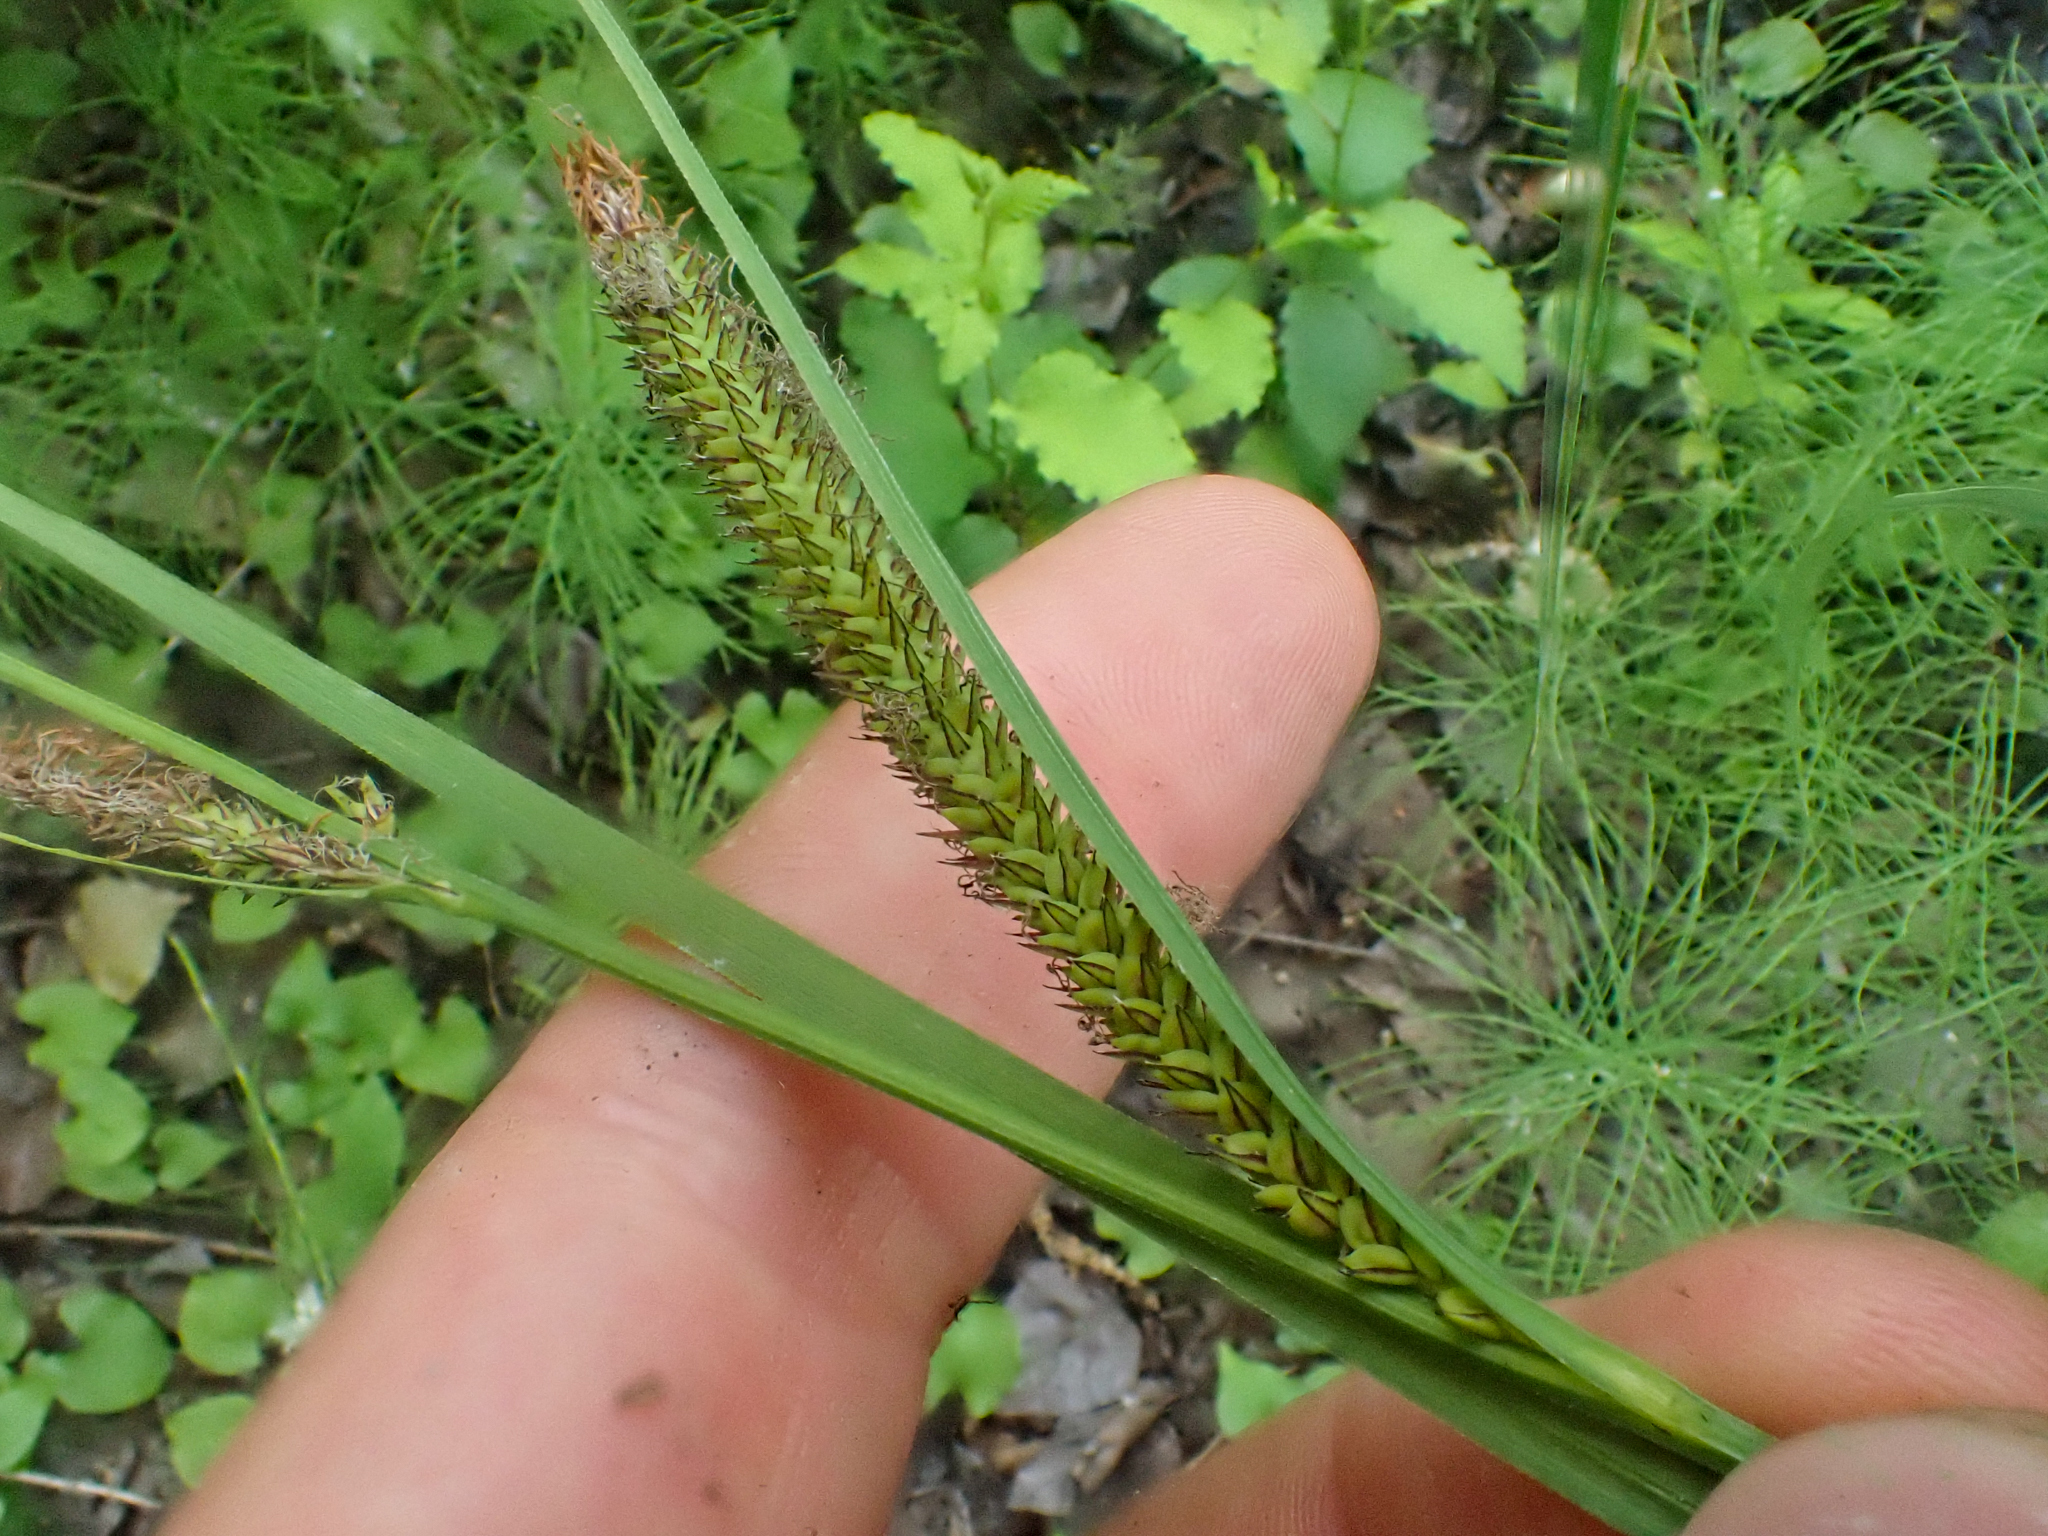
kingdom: Plantae
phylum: Tracheophyta
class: Liliopsida
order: Poales
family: Cyperaceae
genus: Carex
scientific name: Carex aquatilis
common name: Water sedge
